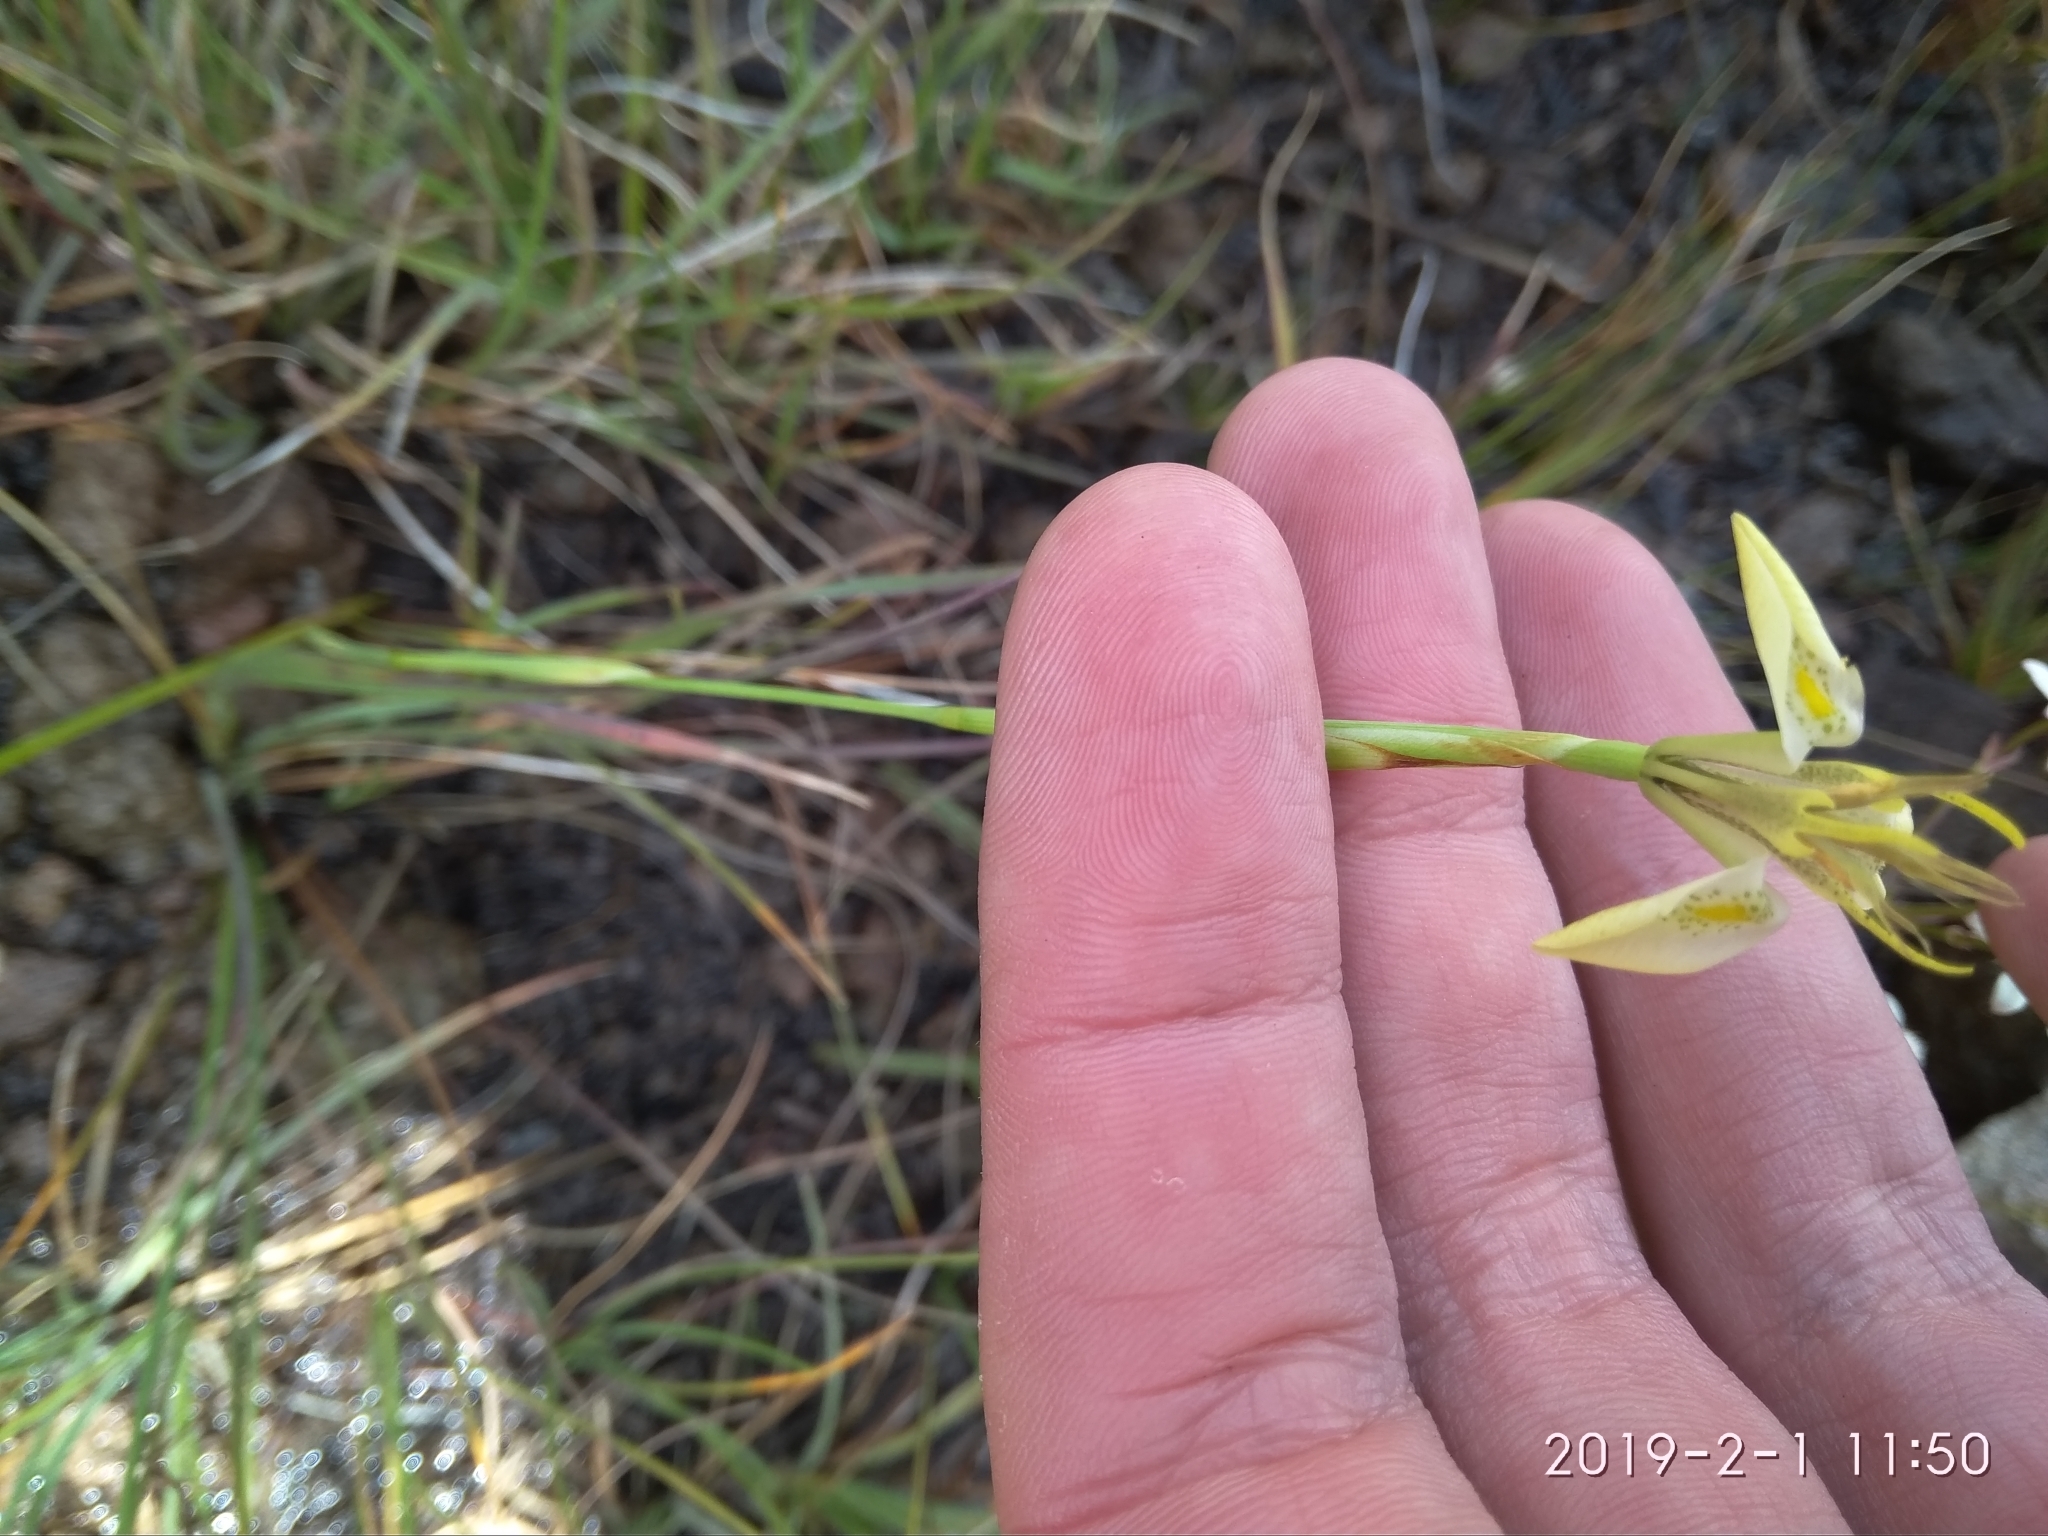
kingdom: Plantae
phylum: Tracheophyta
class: Liliopsida
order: Asparagales
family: Iridaceae
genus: Moraea
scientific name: Moraea trifida
